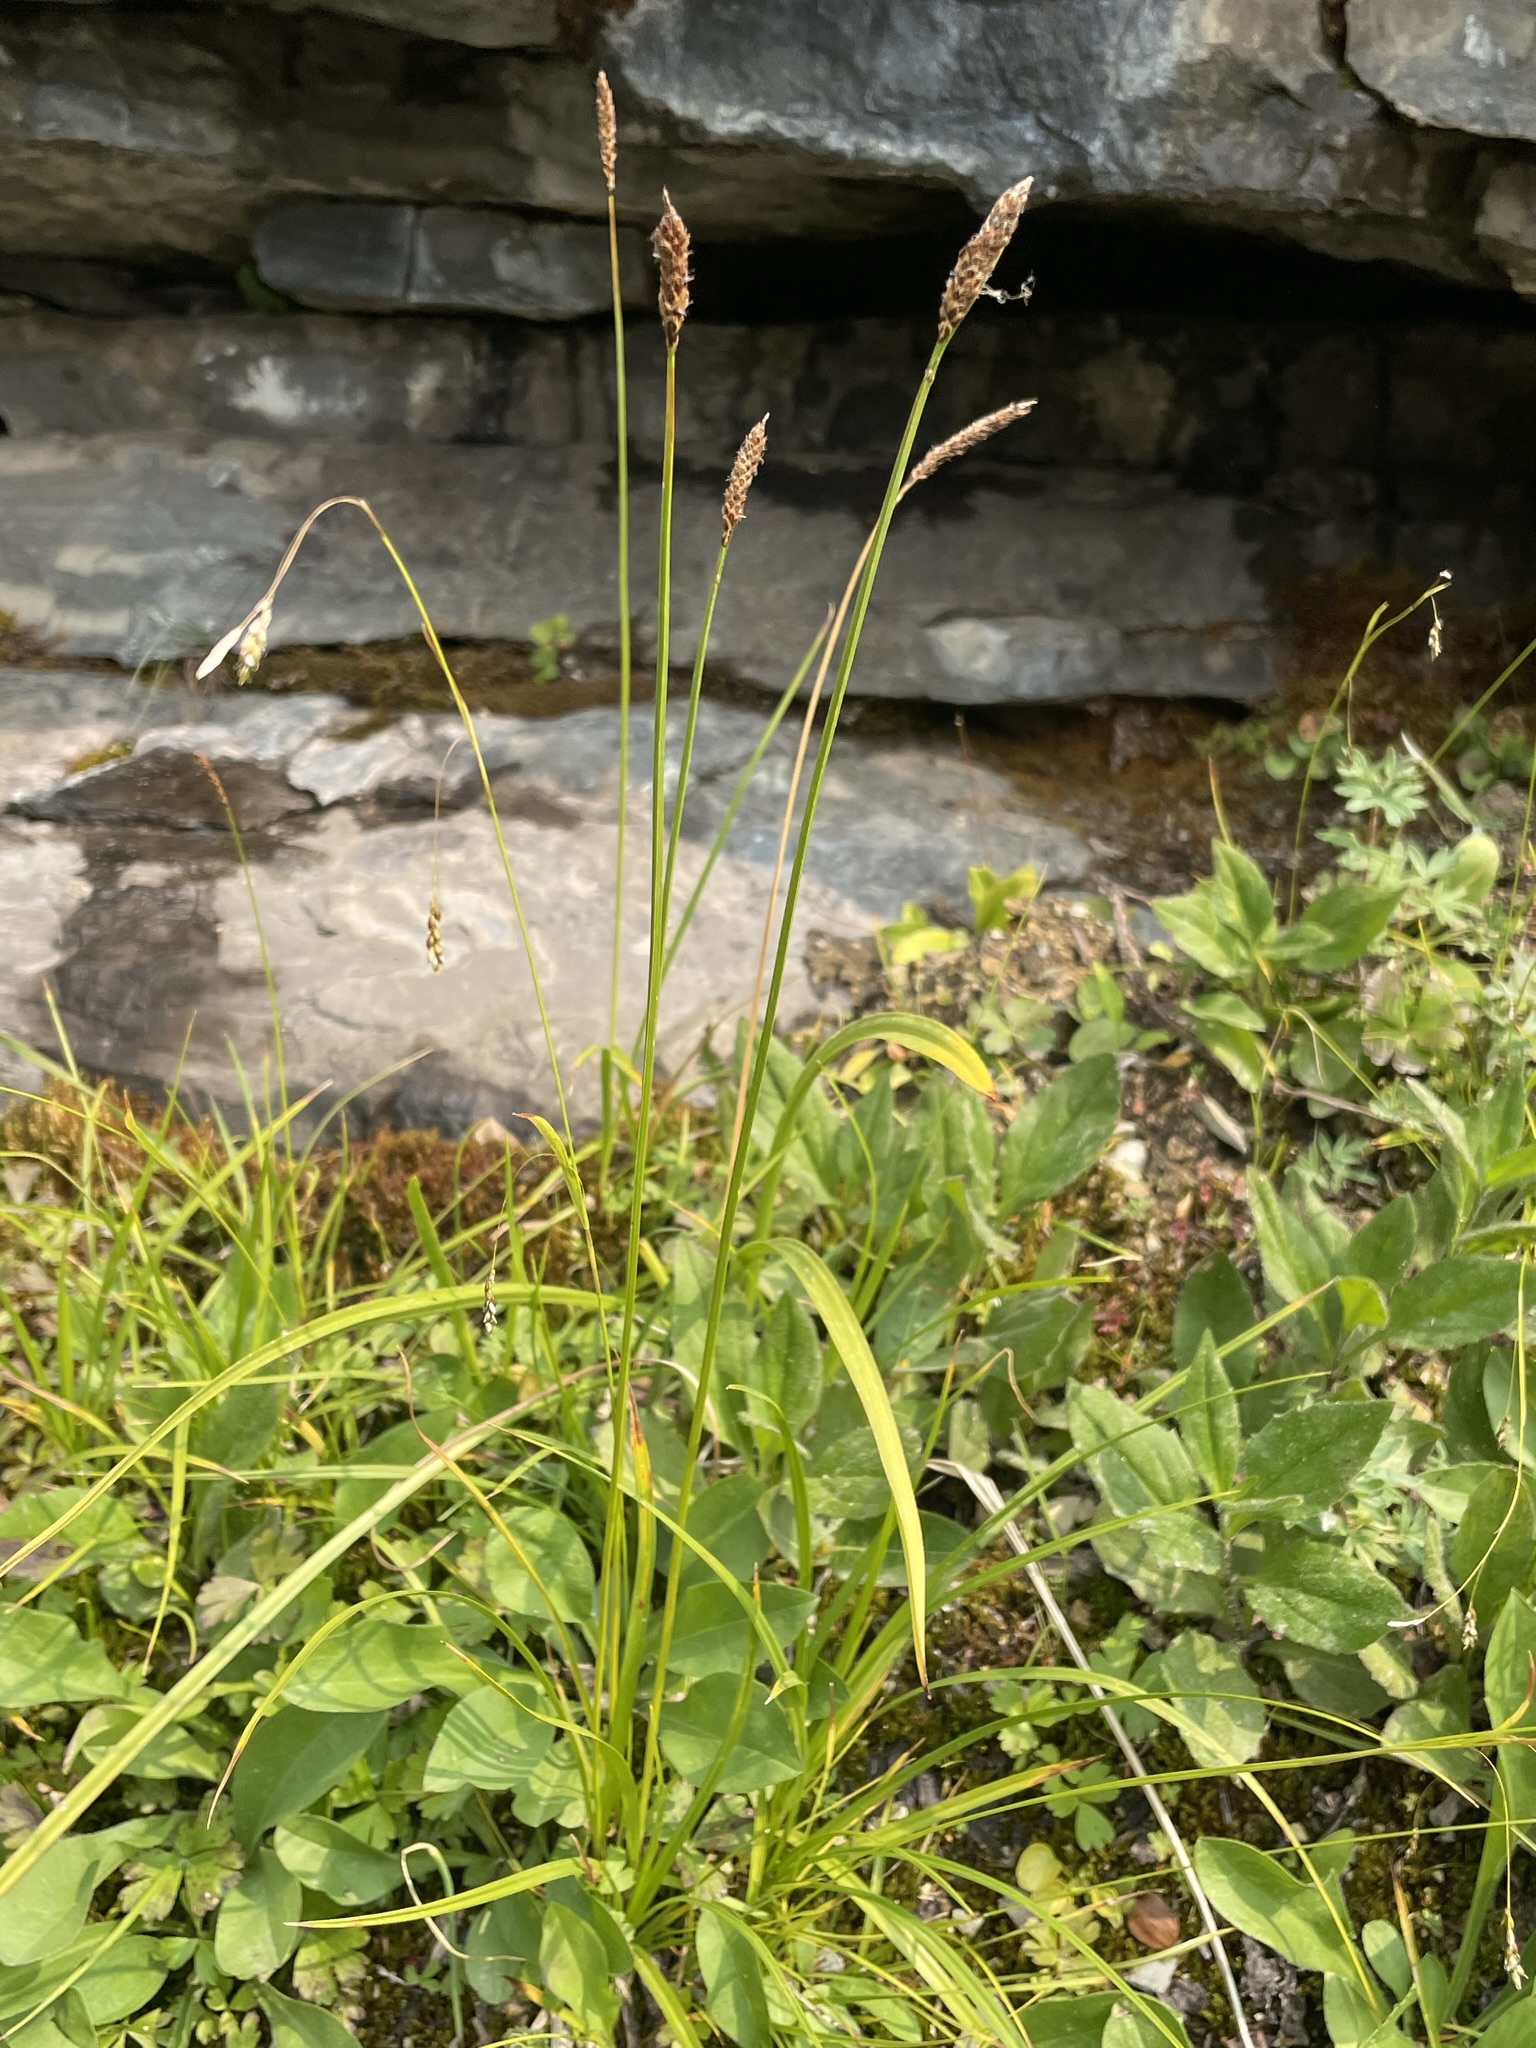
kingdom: Plantae
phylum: Tracheophyta
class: Liliopsida
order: Poales
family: Cyperaceae
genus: Carex
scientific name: Carex scirpoidea
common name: Canada single-spike sedge
